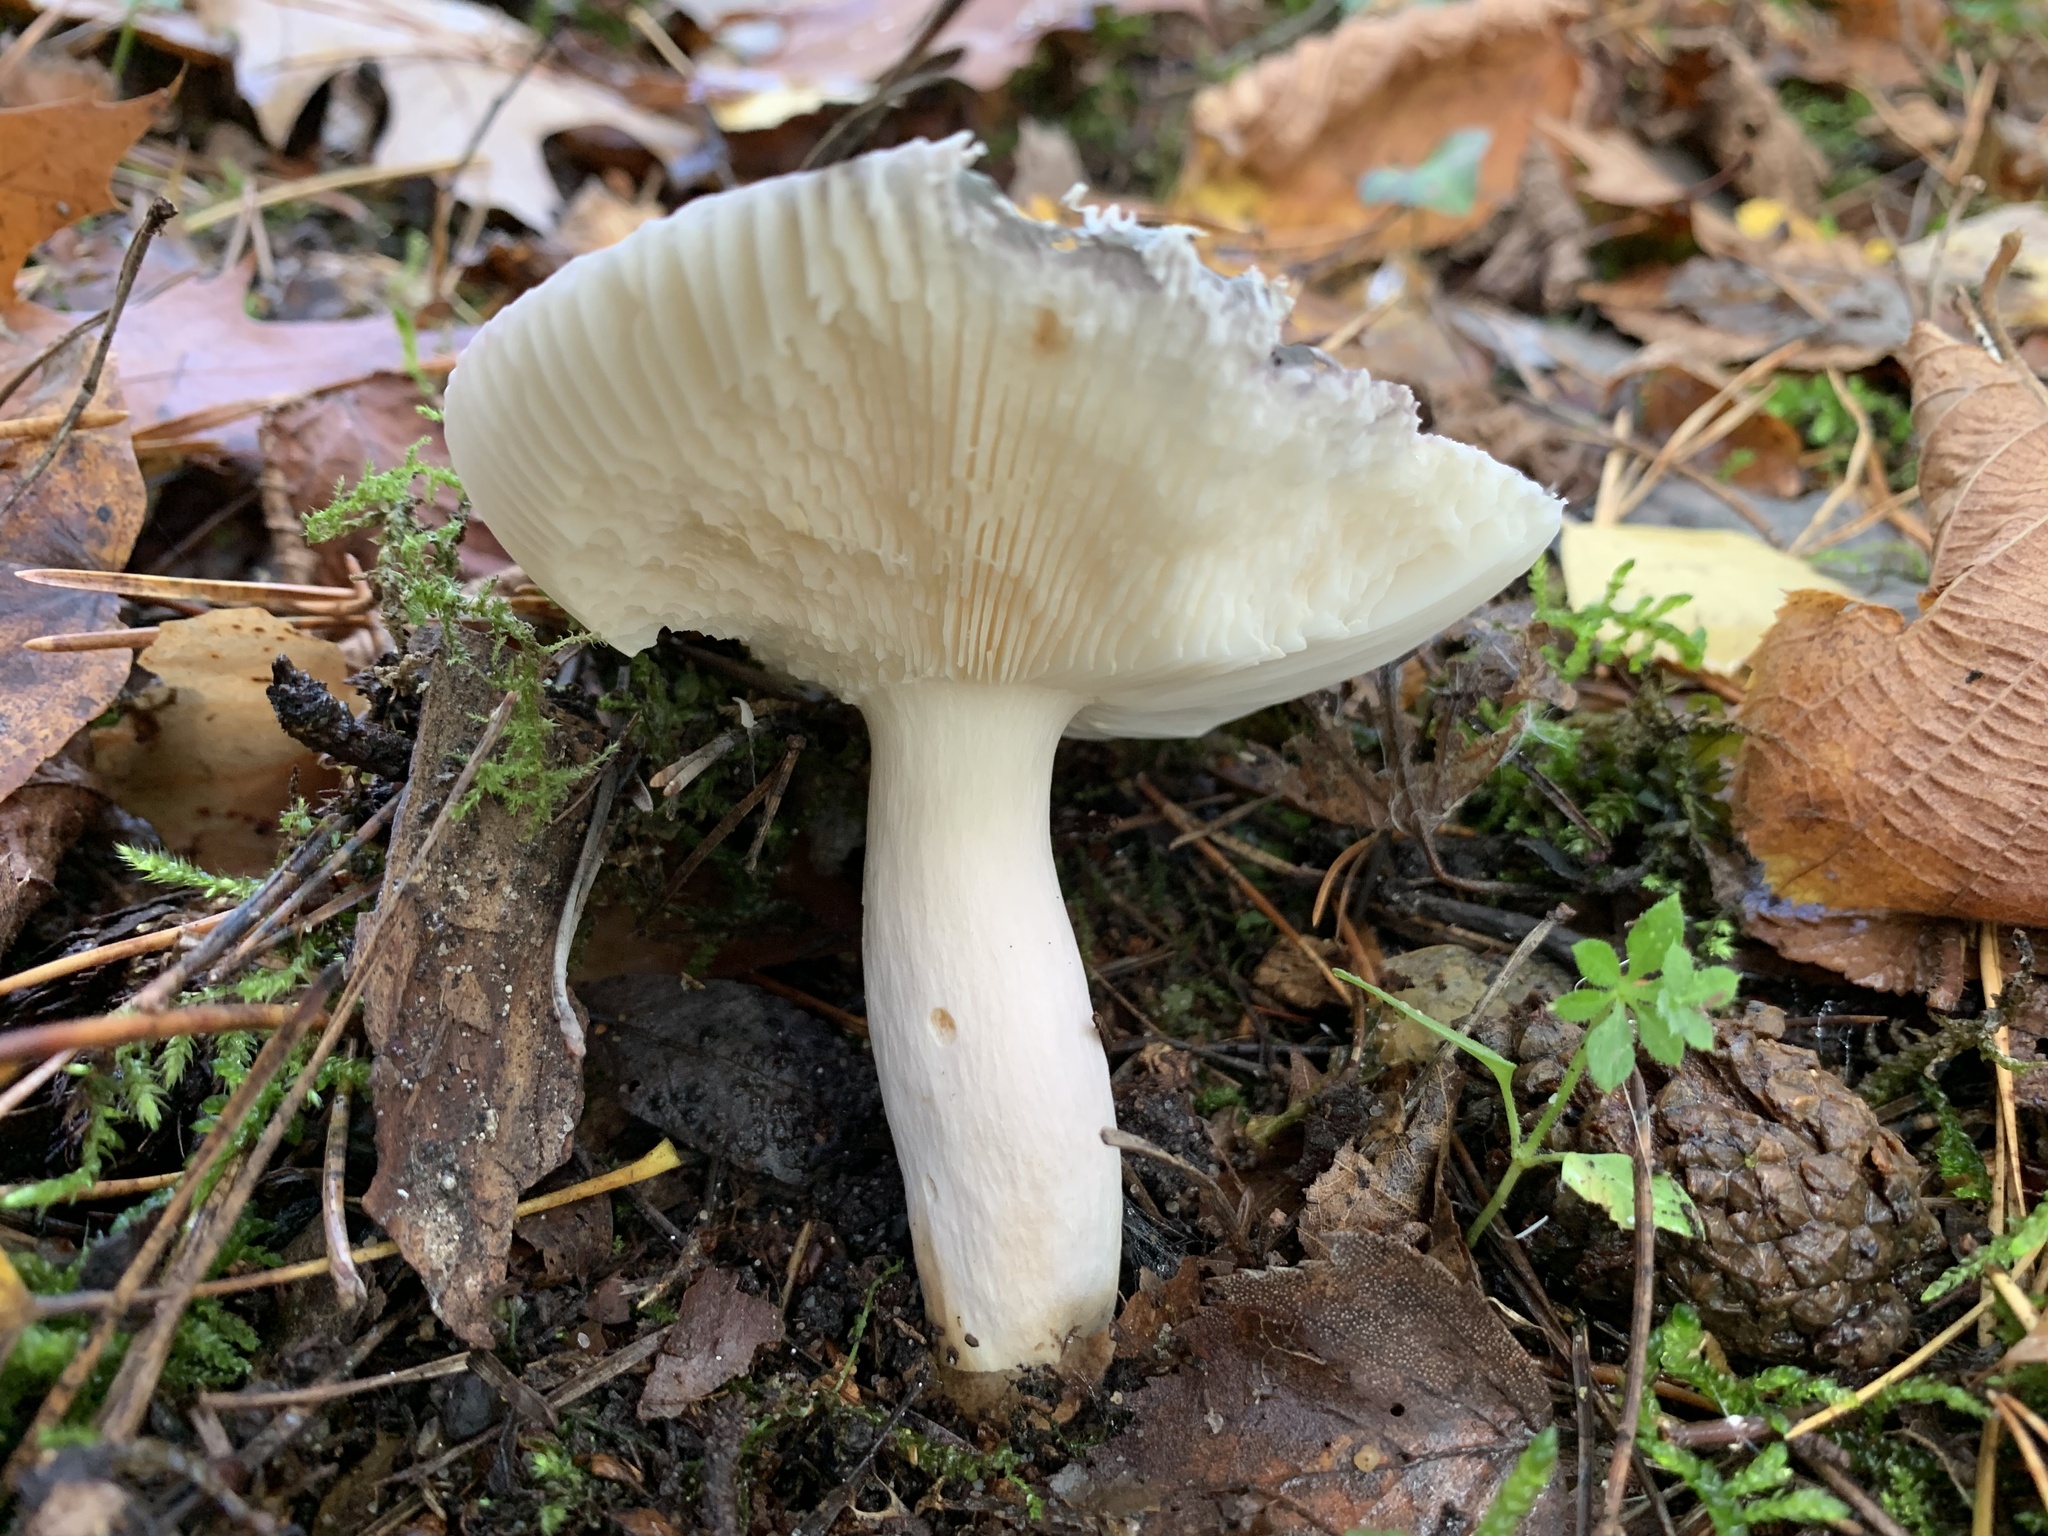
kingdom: Fungi
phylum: Basidiomycota
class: Agaricomycetes
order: Russulales
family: Russulaceae
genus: Russula
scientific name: Russula cyanoxantha
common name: Charcoal burner
